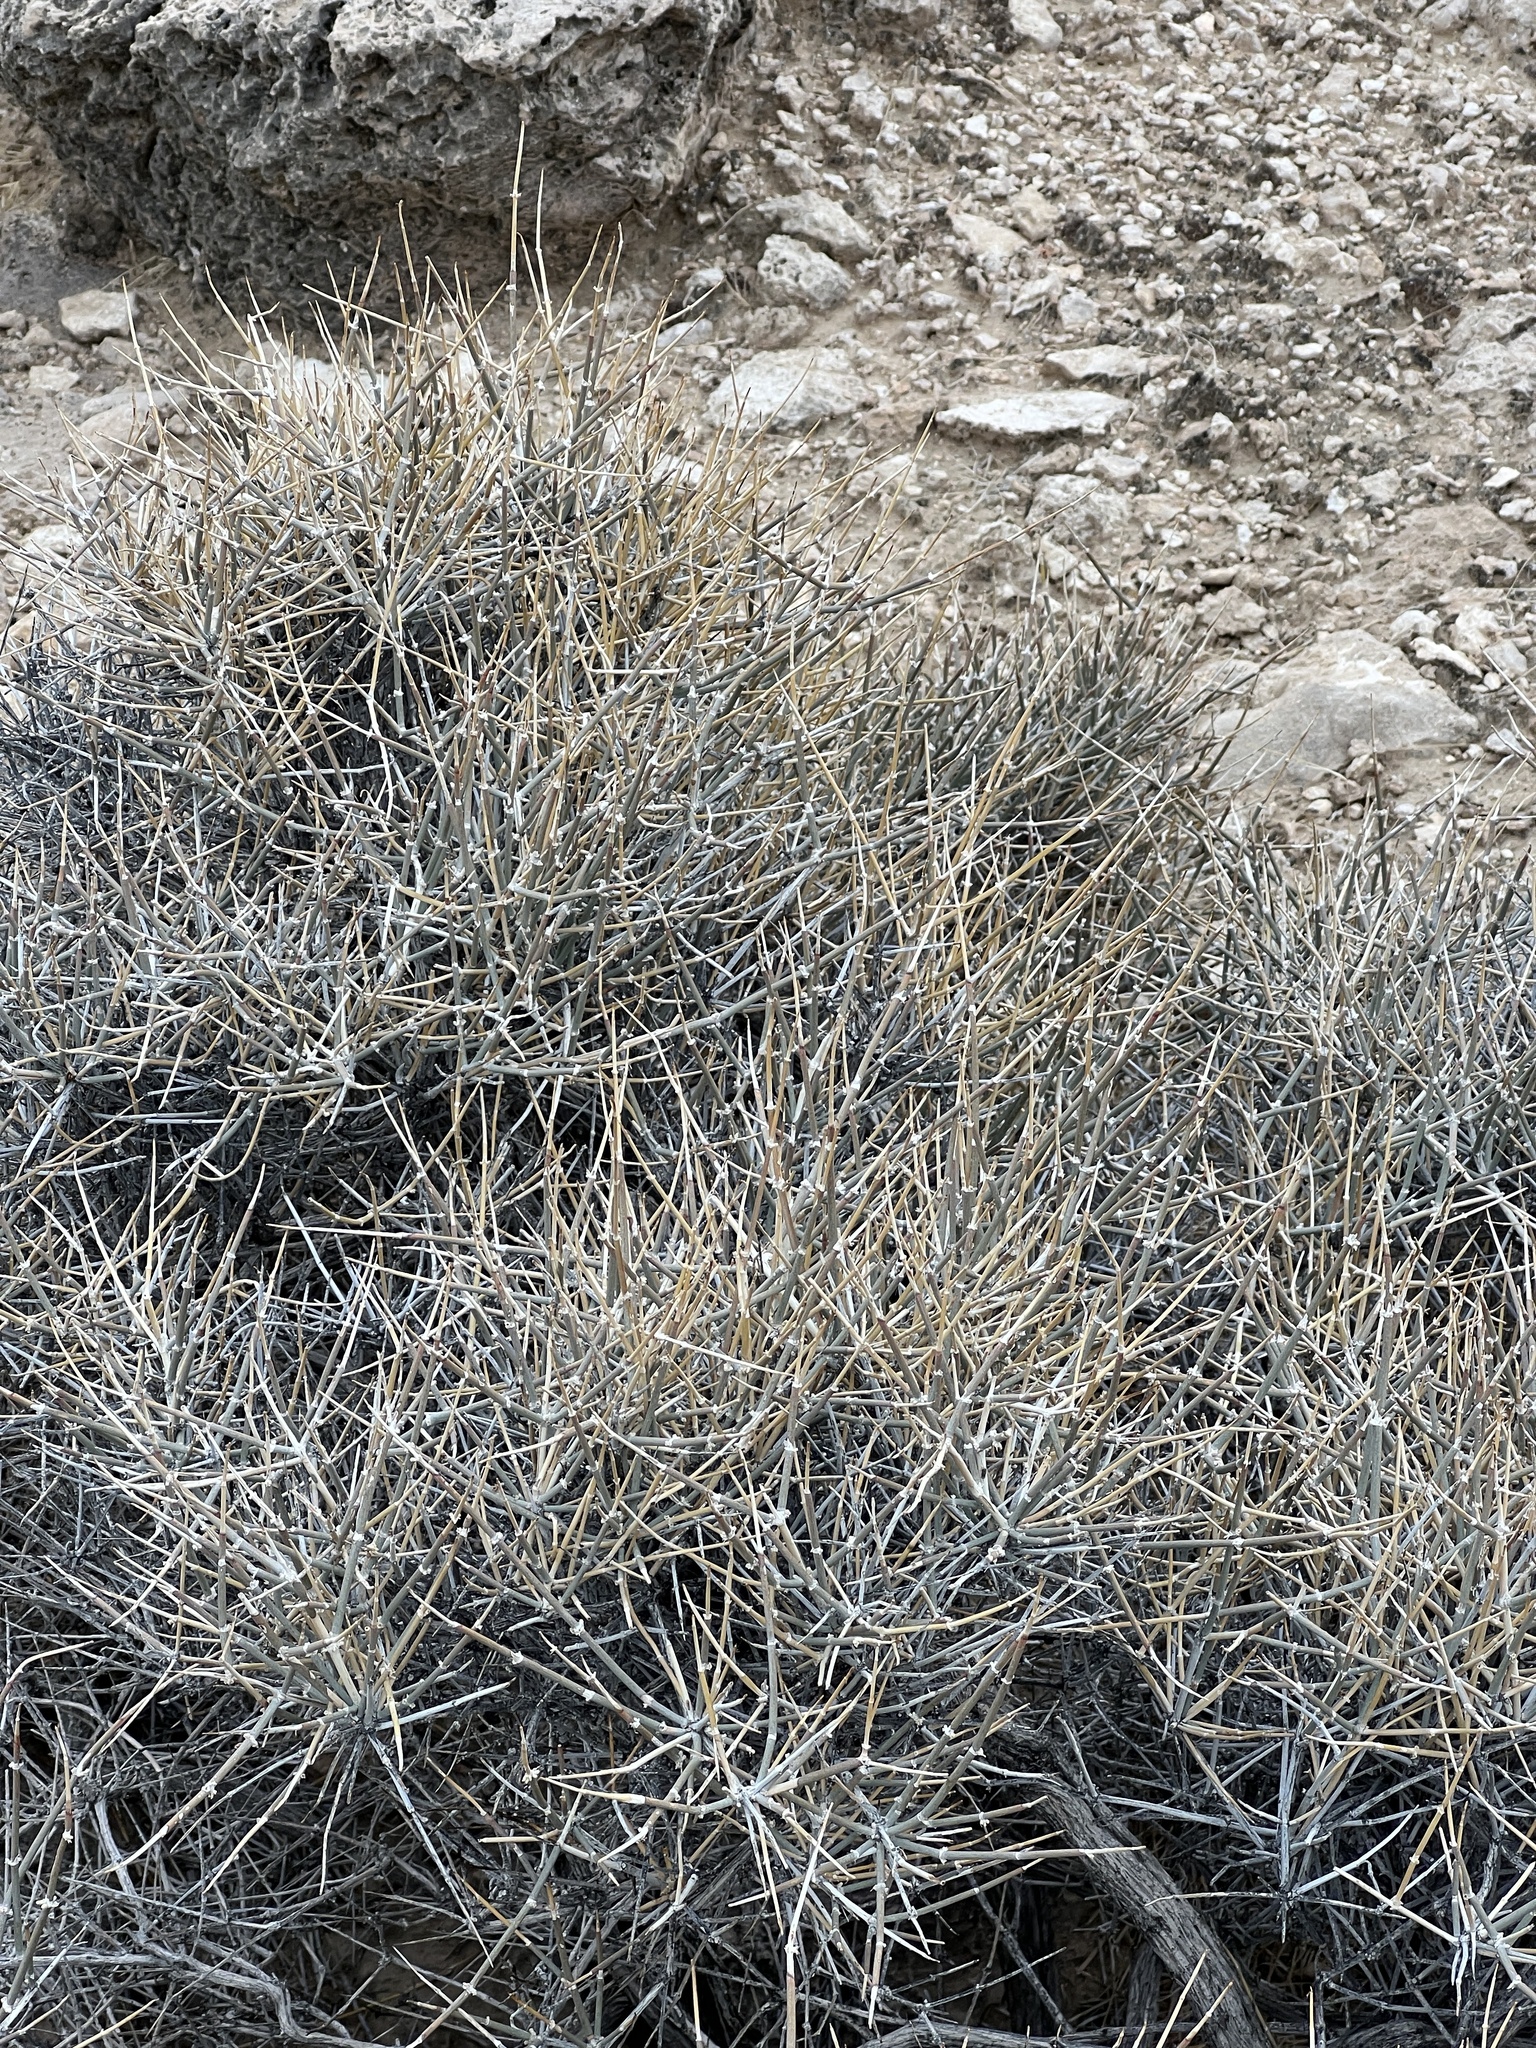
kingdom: Plantae
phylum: Tracheophyta
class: Gnetopsida
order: Ephedrales
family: Ephedraceae
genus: Ephedra
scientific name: Ephedra nevadensis
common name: Gray ephedra
